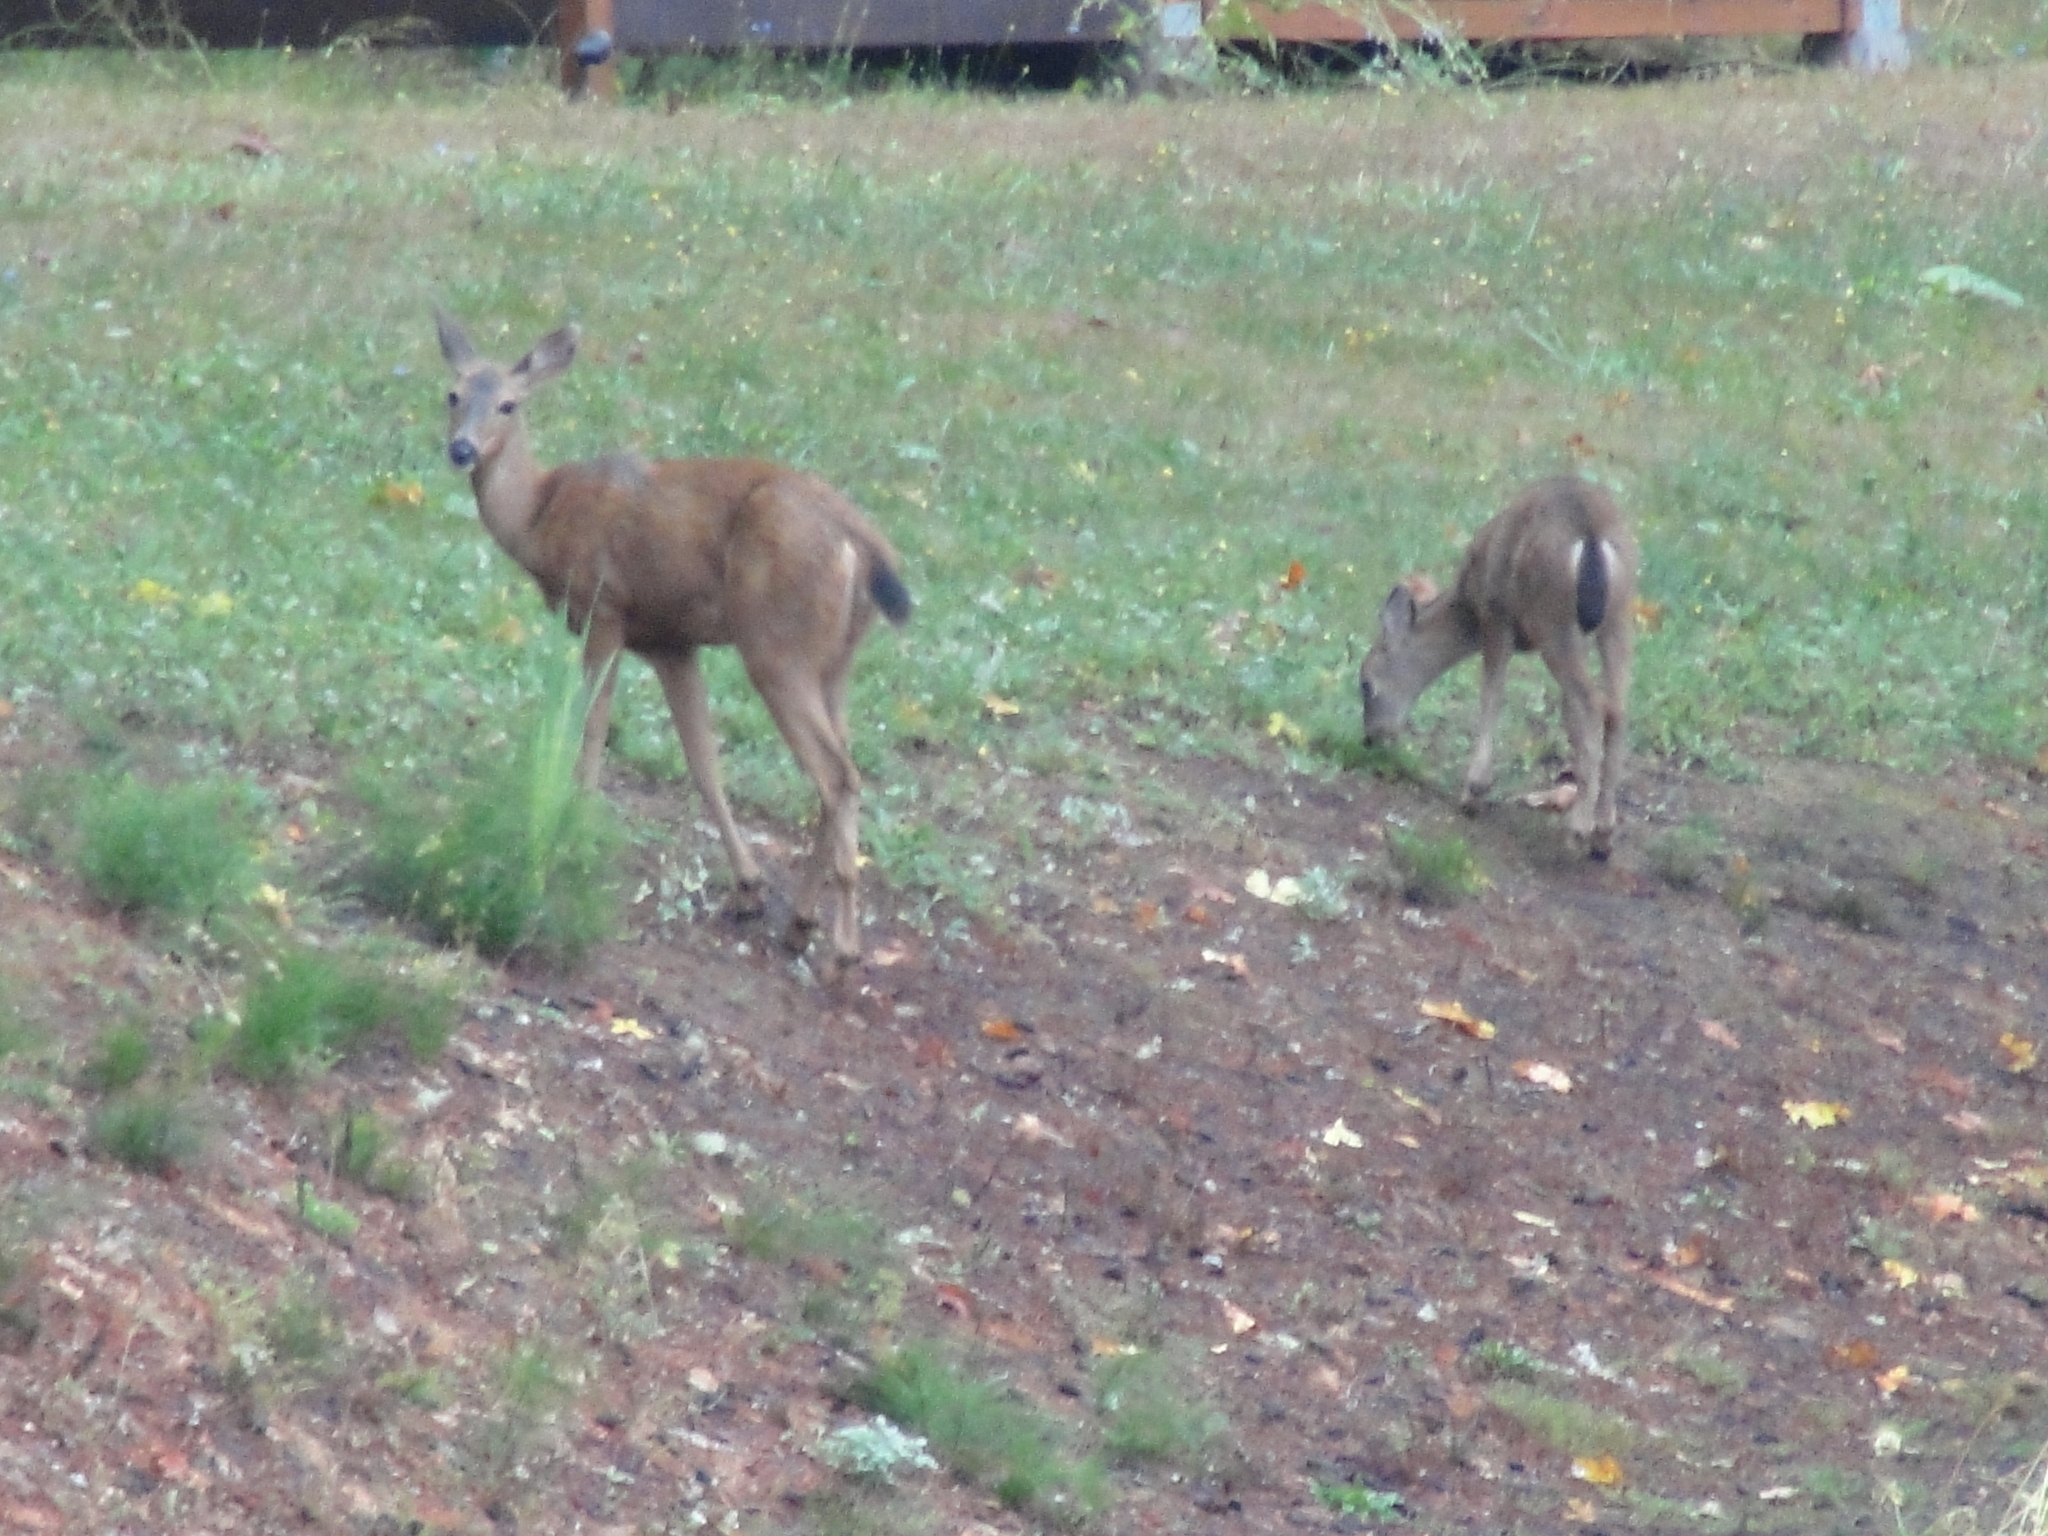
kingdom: Animalia
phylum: Chordata
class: Mammalia
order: Artiodactyla
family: Cervidae
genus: Odocoileus
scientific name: Odocoileus hemionus
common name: Mule deer
